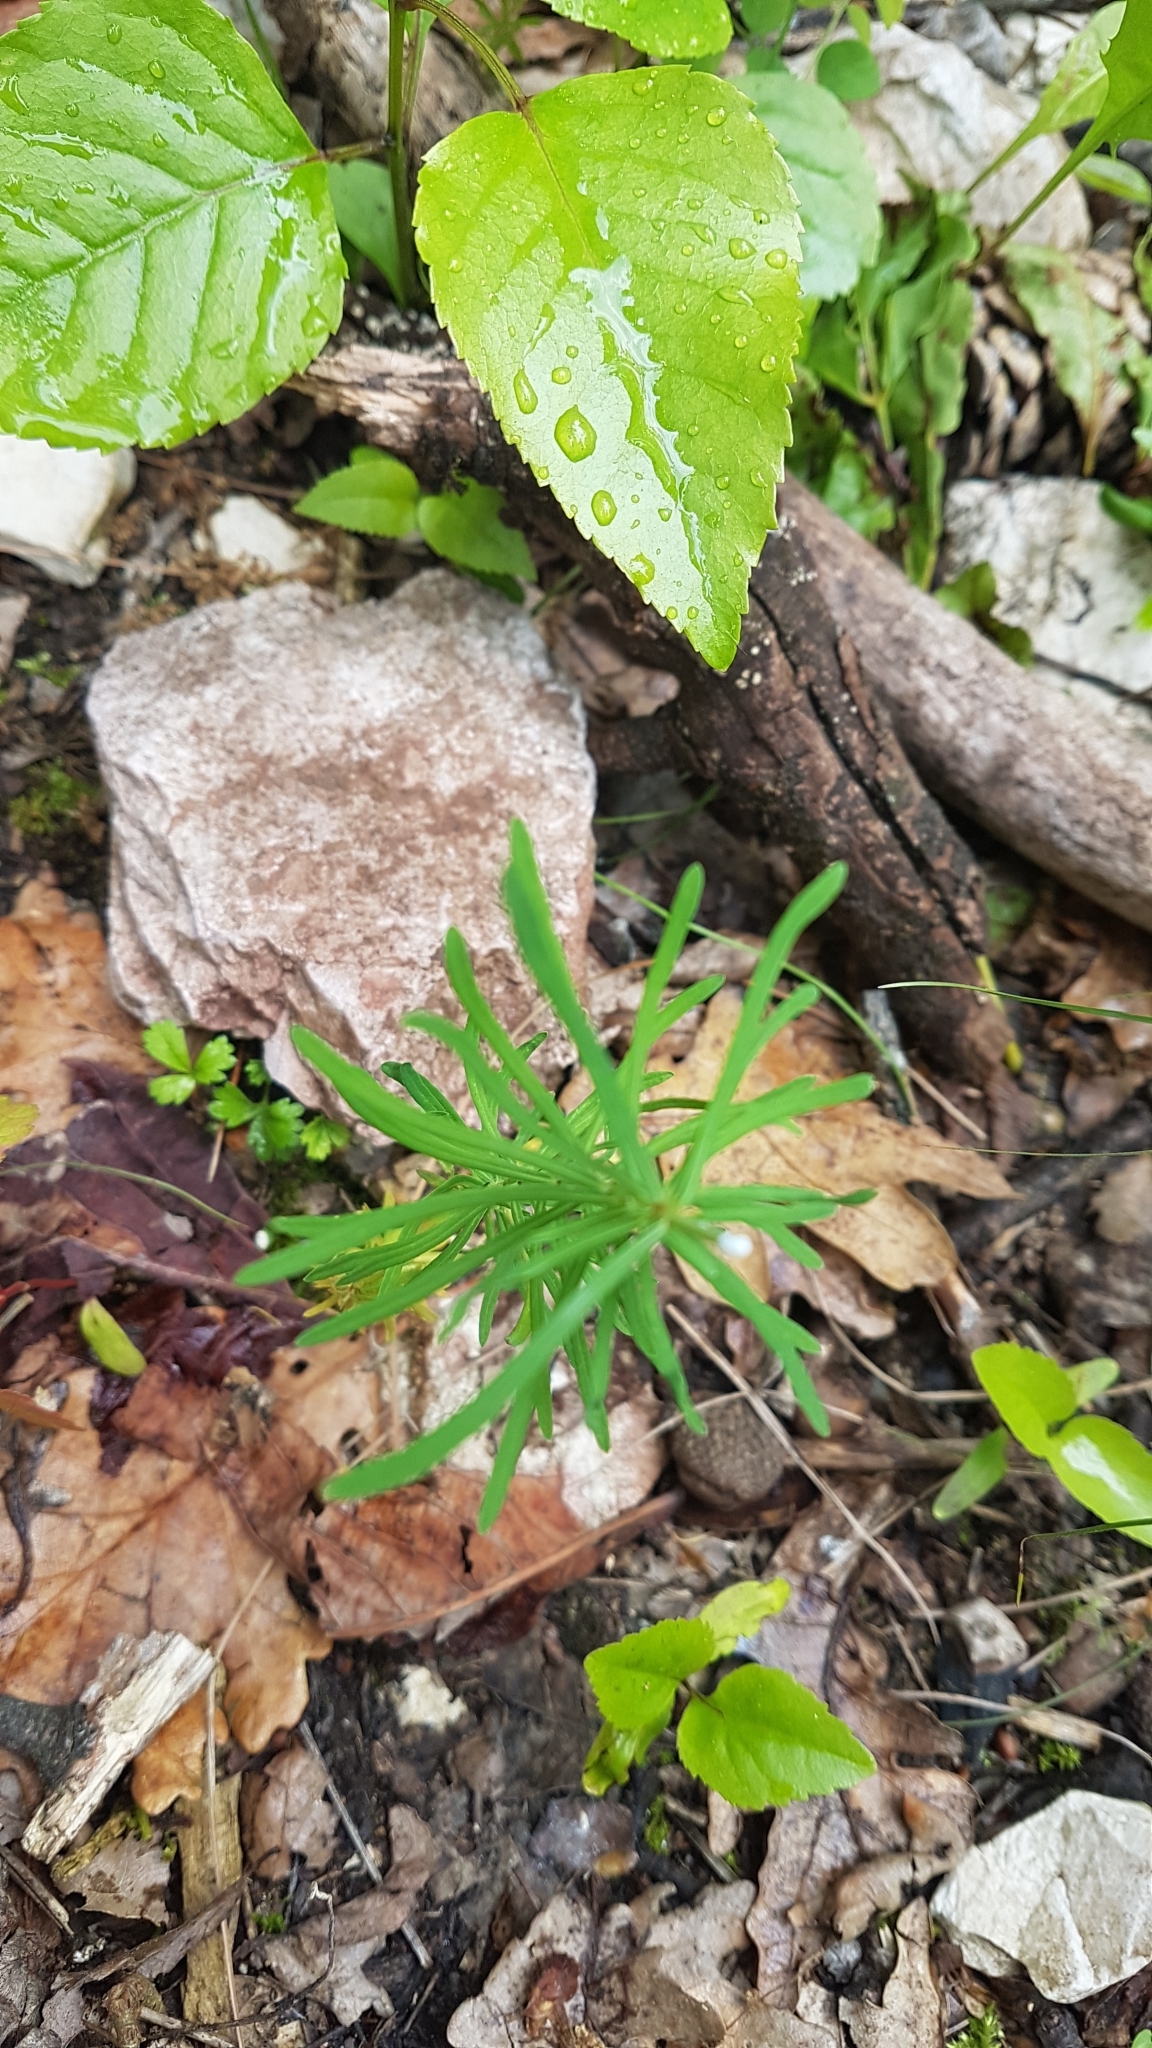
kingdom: Plantae
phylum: Tracheophyta
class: Magnoliopsida
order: Malpighiales
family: Euphorbiaceae
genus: Euphorbia
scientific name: Euphorbia cyparissias
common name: Cypress spurge
